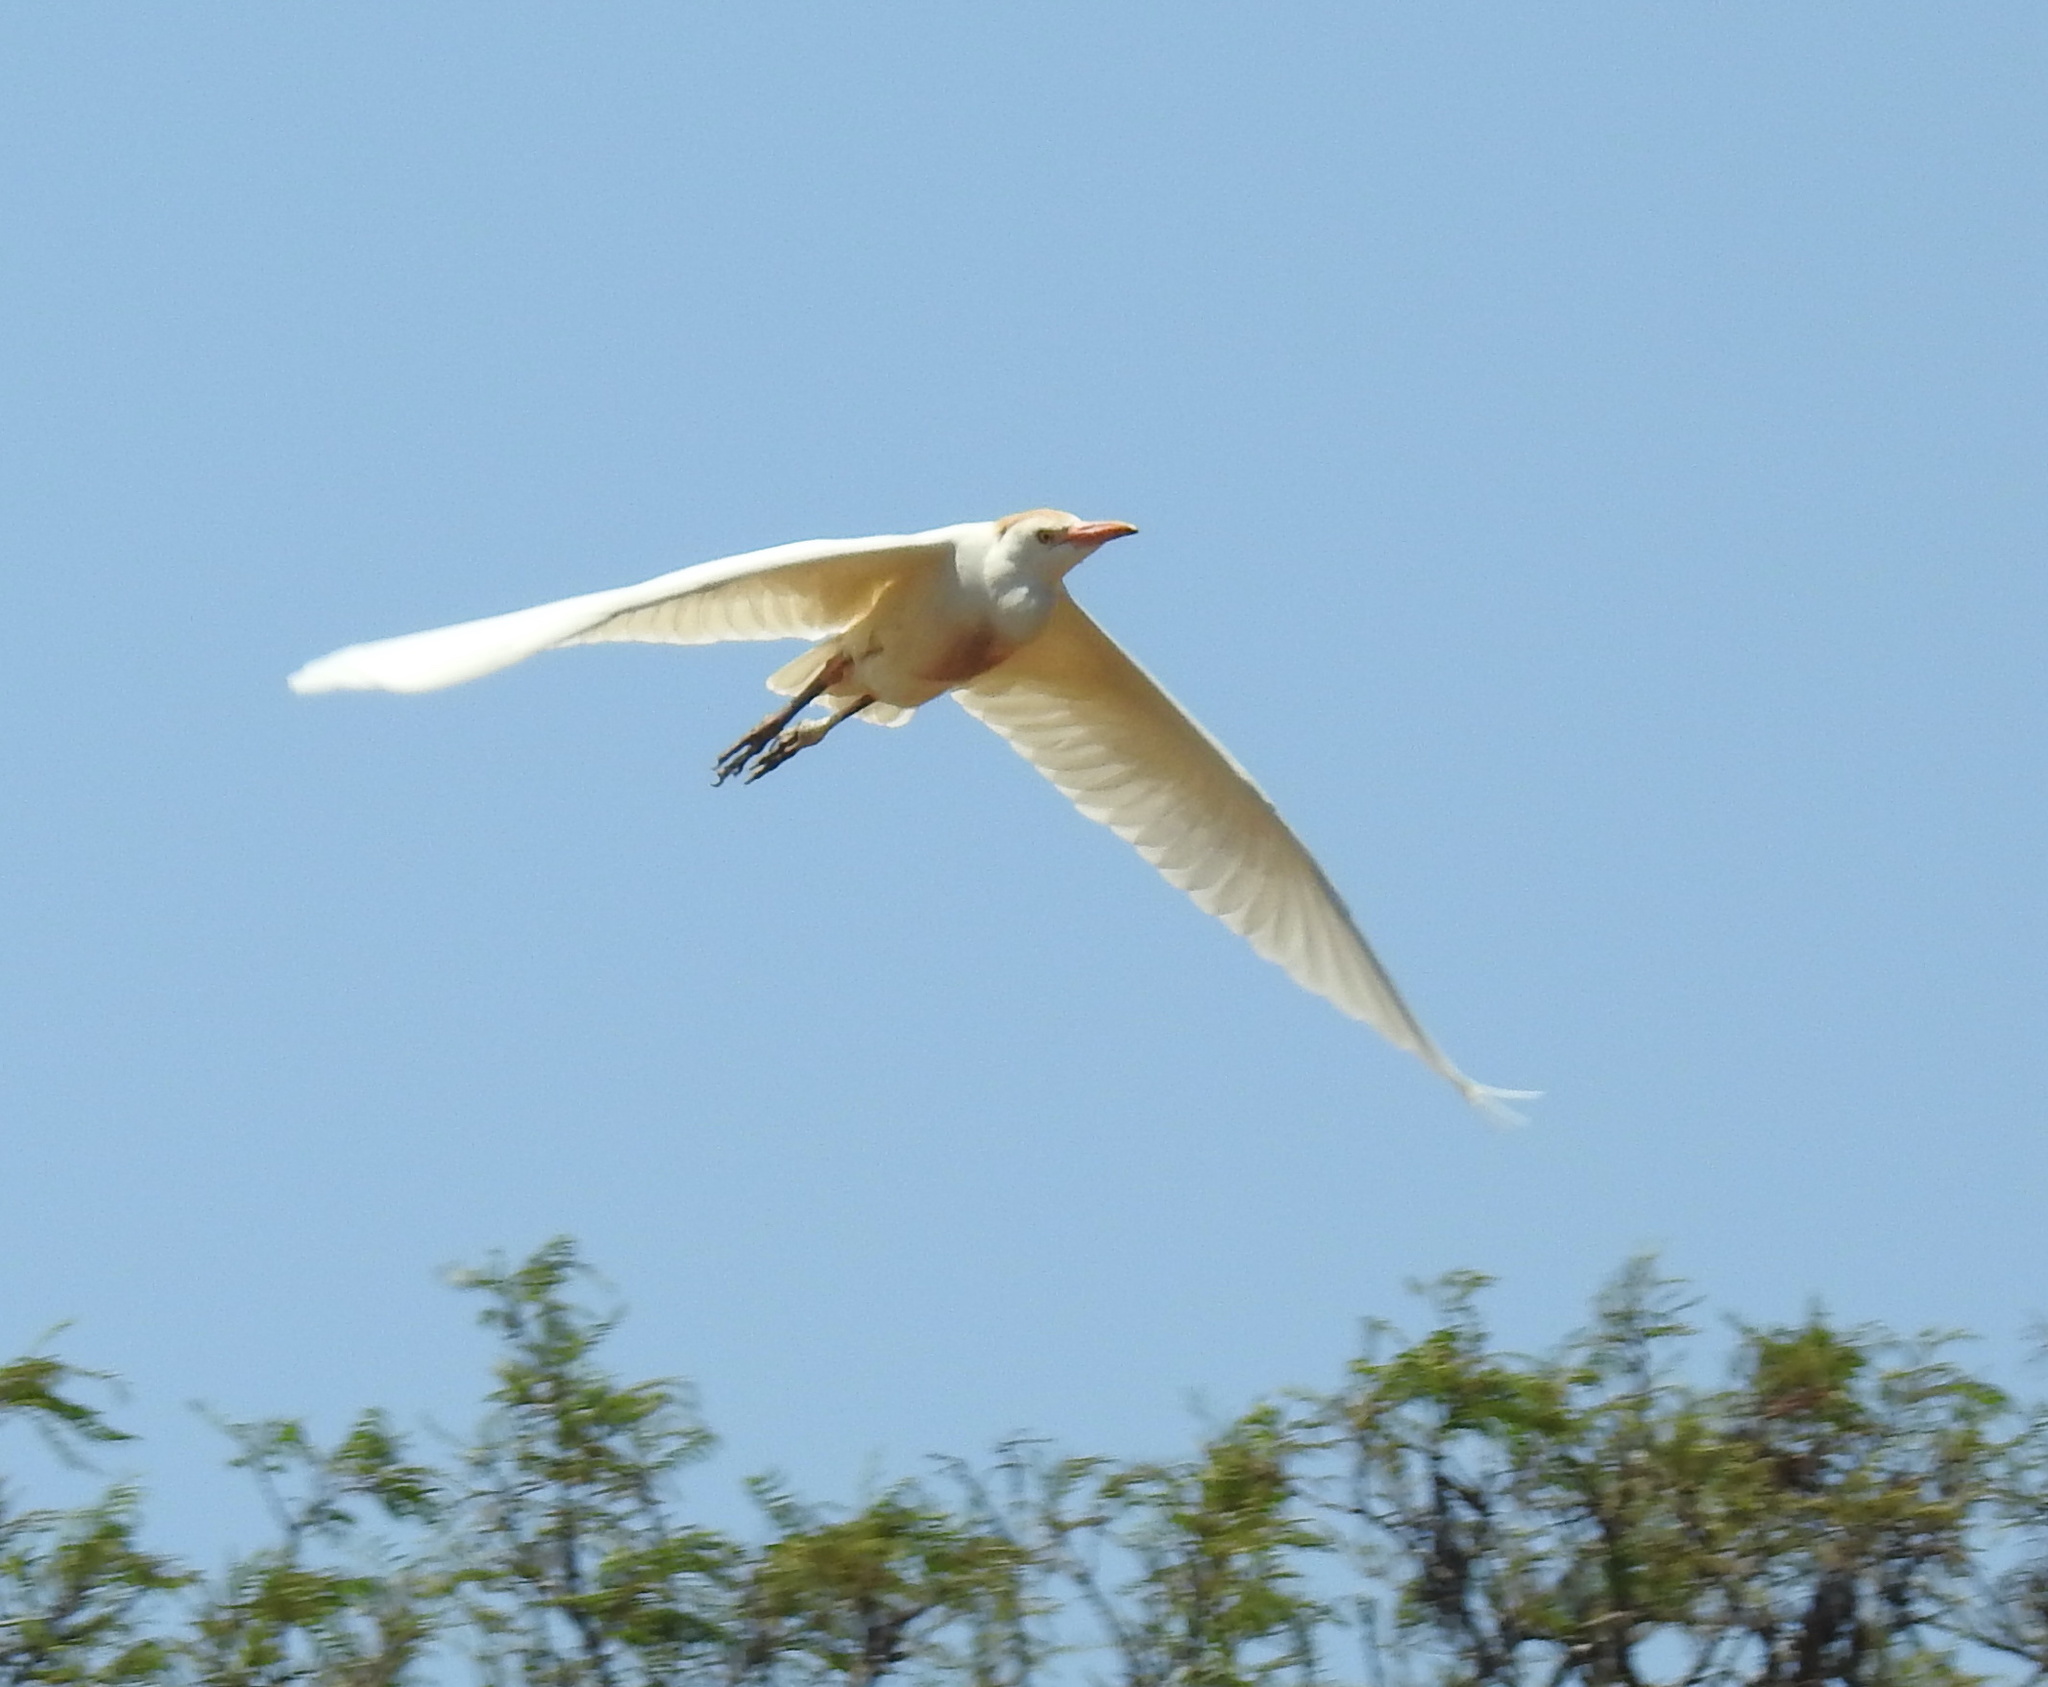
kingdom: Animalia
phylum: Chordata
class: Aves
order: Pelecaniformes
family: Ardeidae
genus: Bubulcus
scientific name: Bubulcus ibis
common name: Cattle egret
